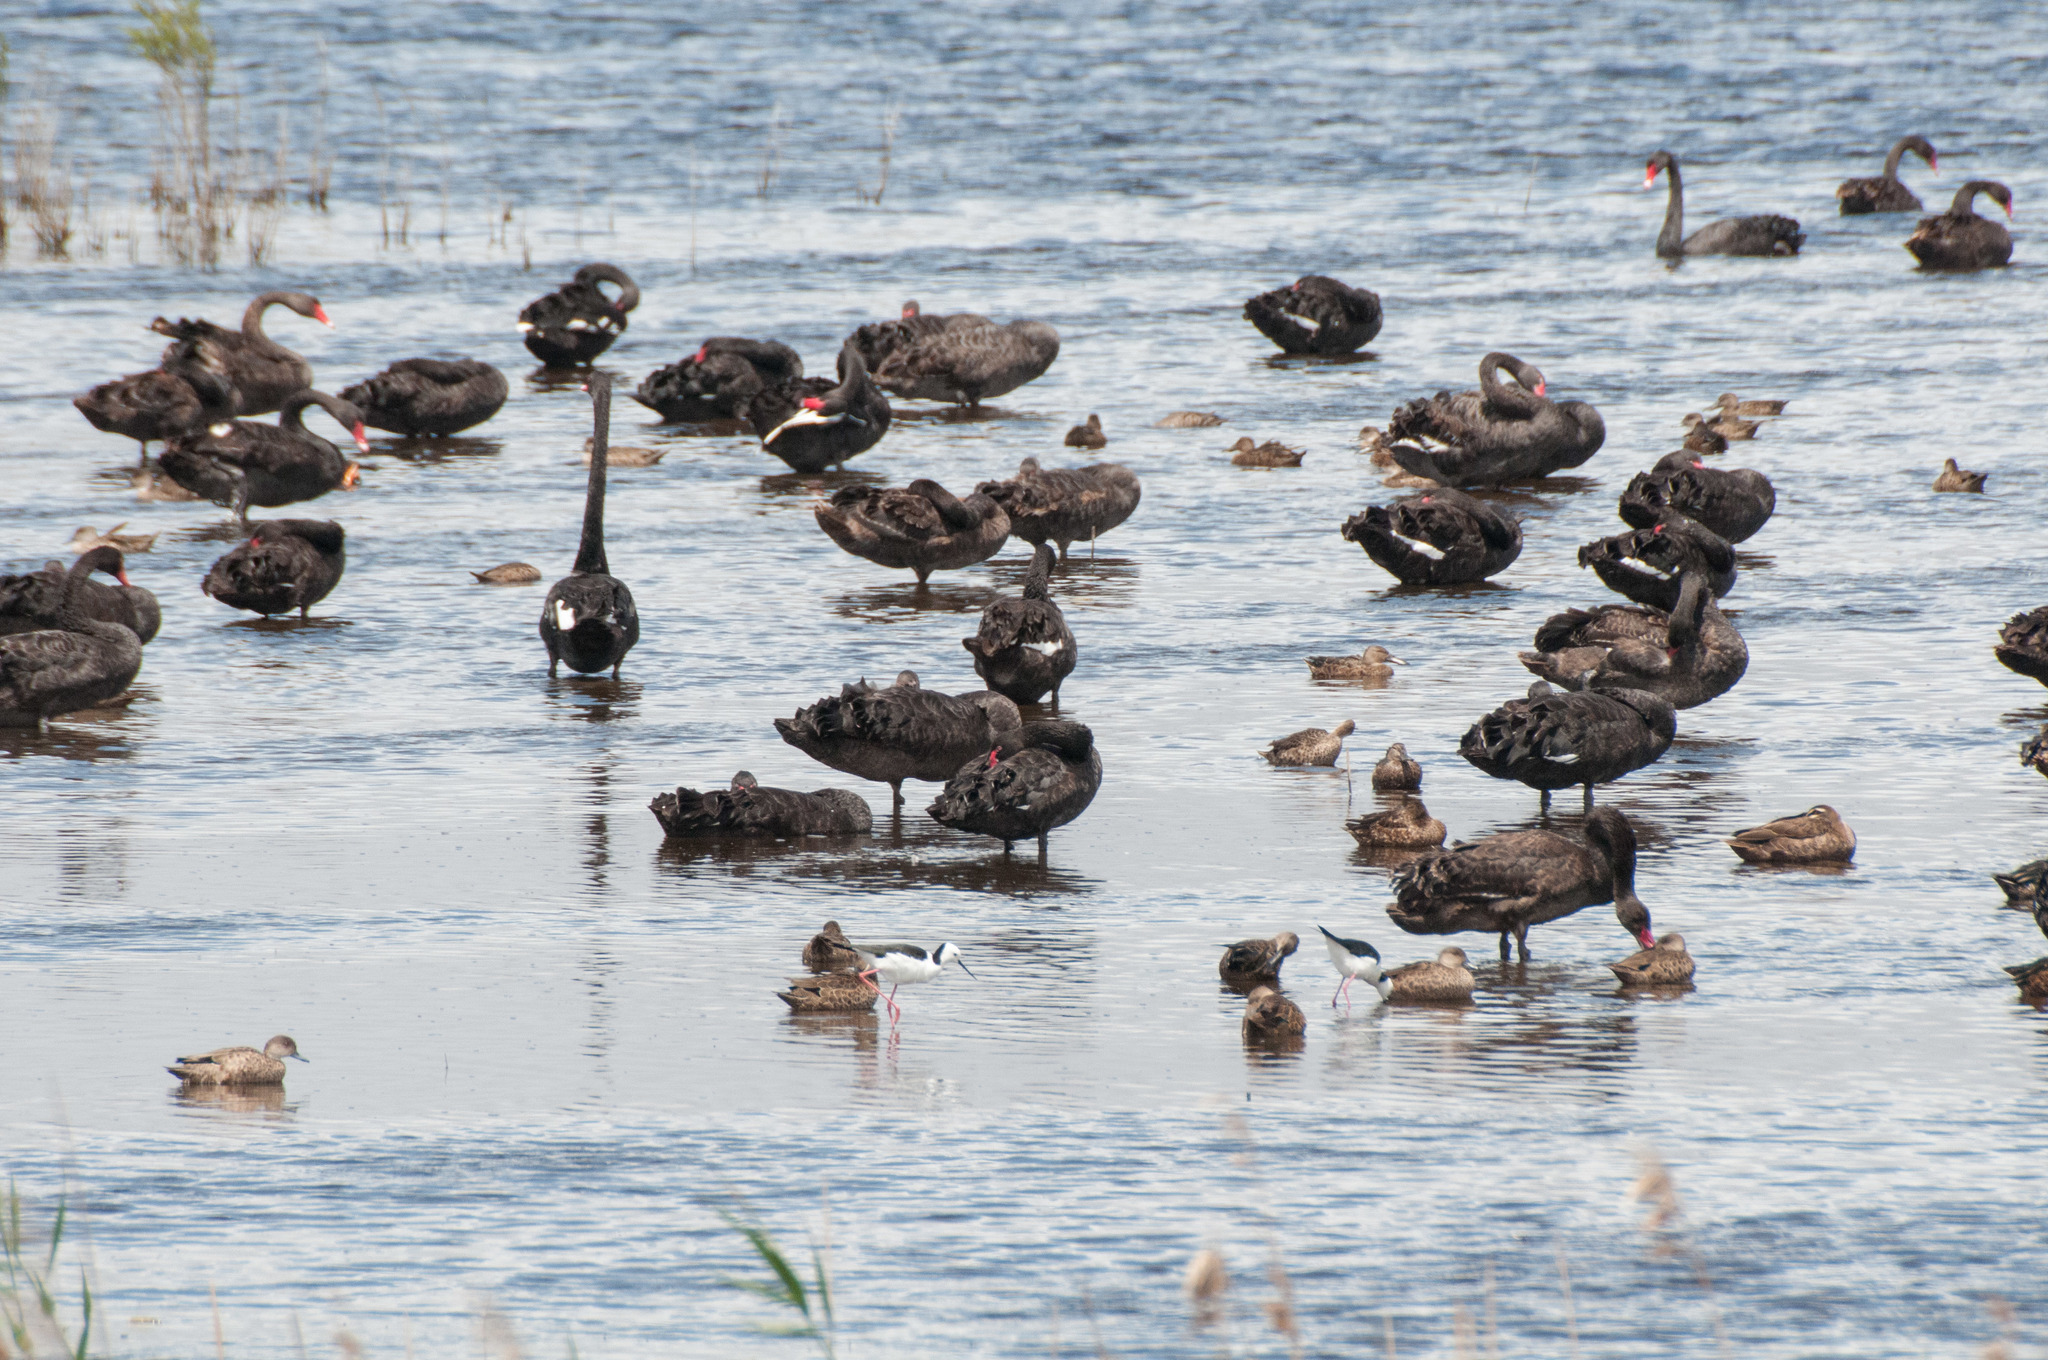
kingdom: Animalia
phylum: Chordata
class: Aves
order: Anseriformes
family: Anatidae
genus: Cygnus
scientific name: Cygnus atratus
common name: Black swan
